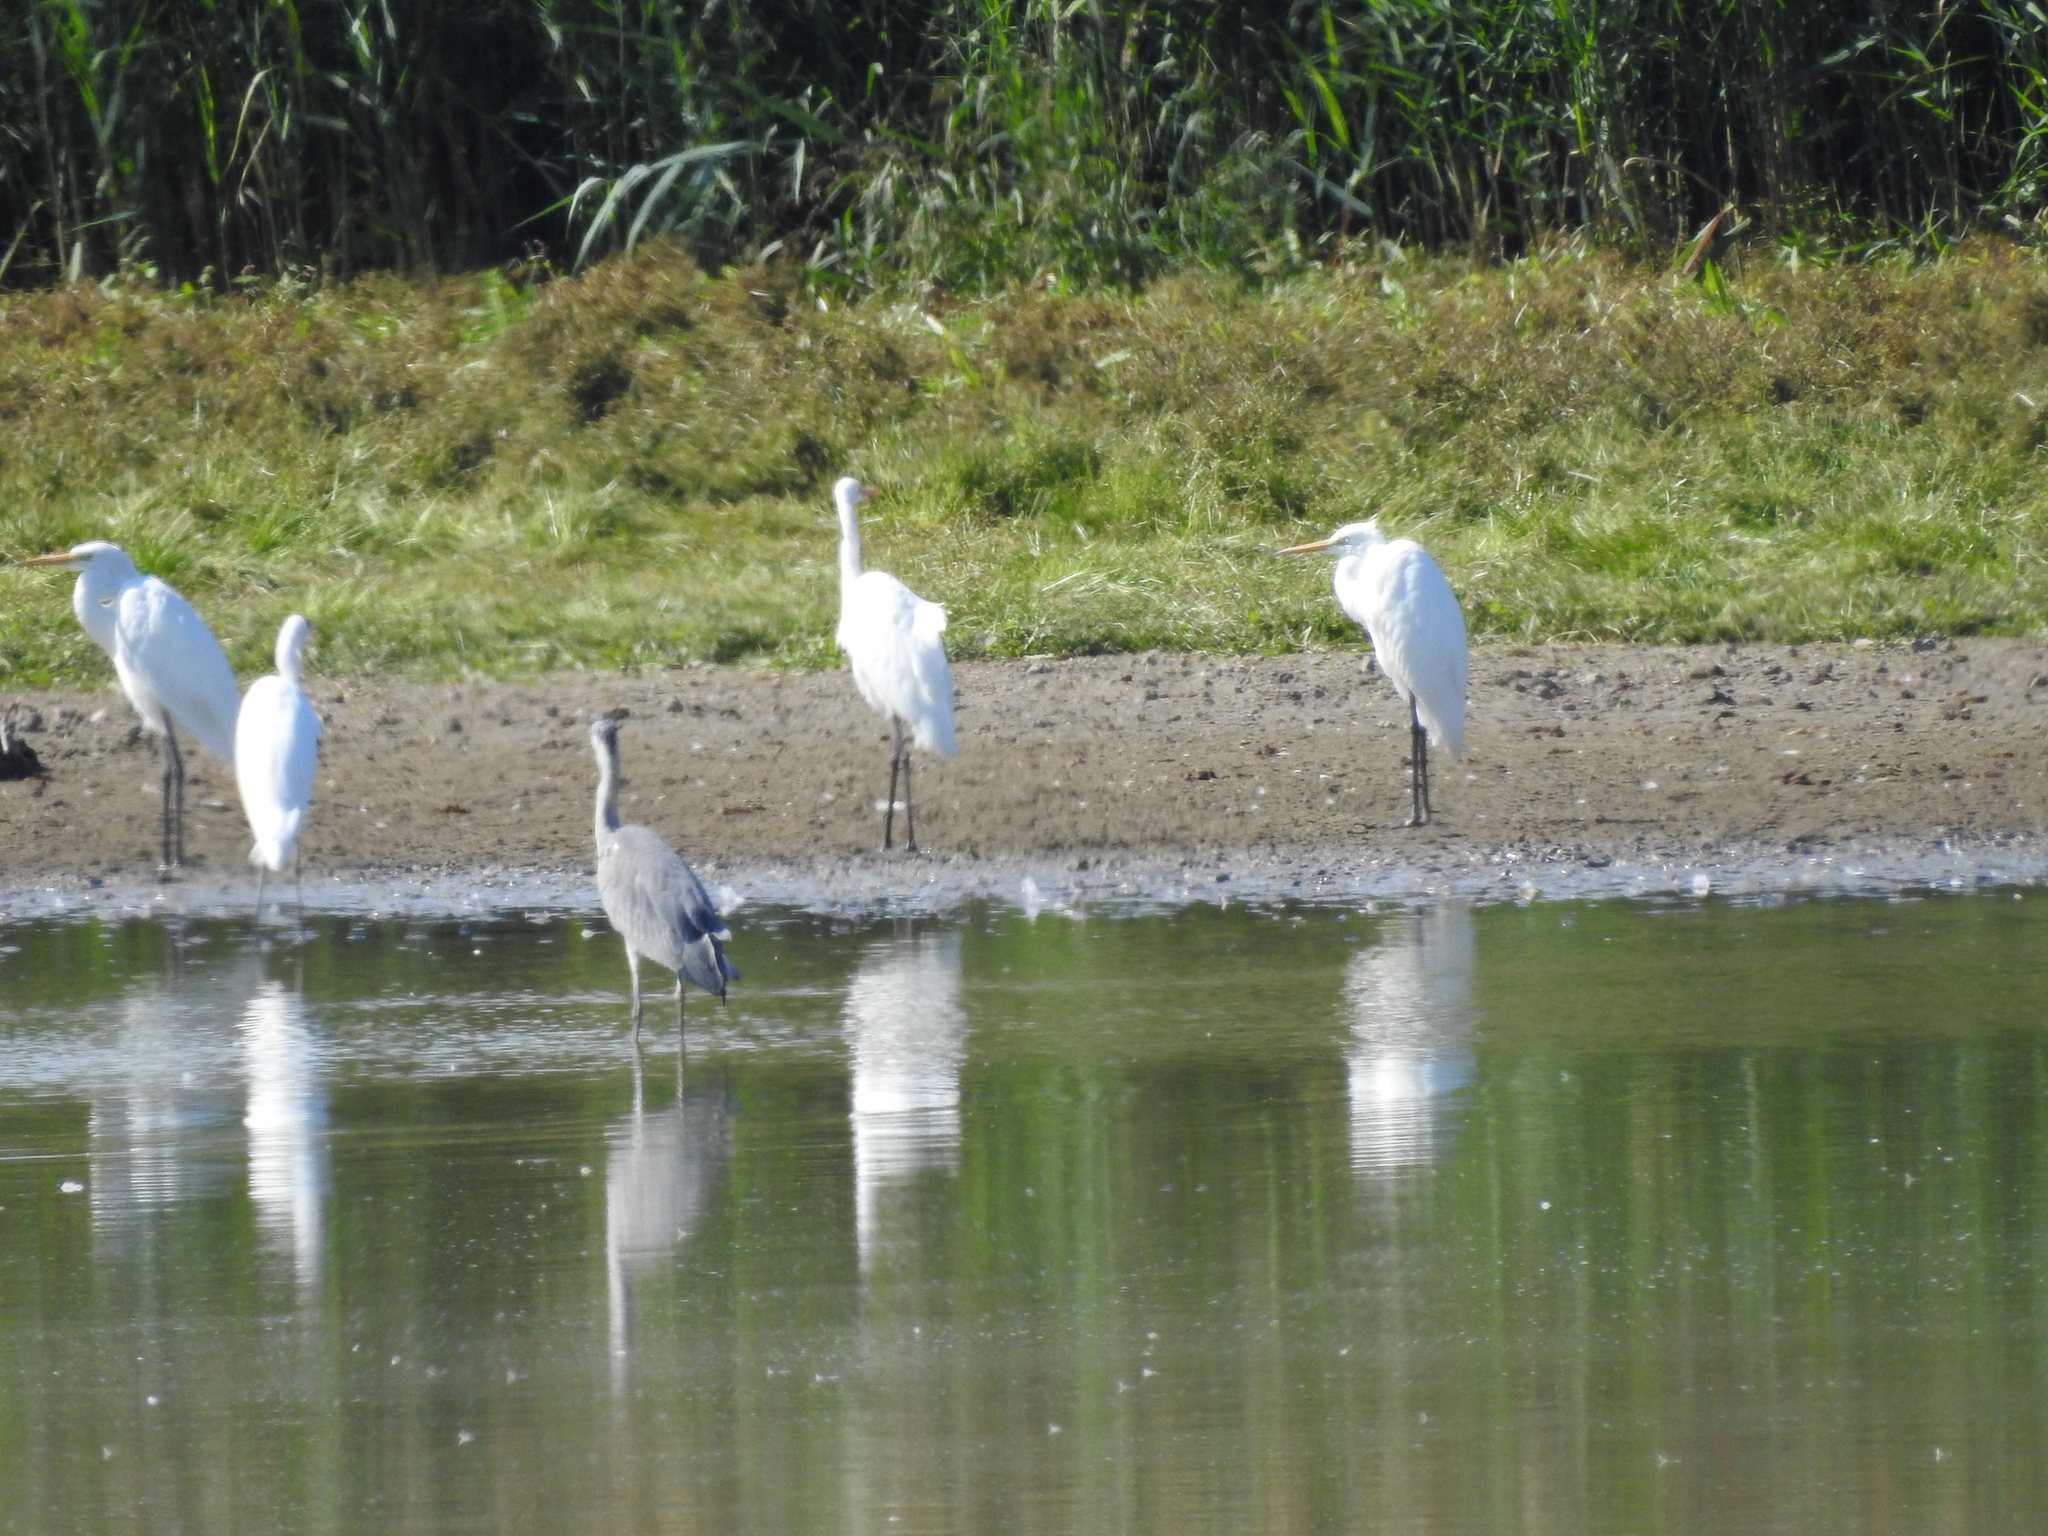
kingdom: Animalia
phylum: Chordata
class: Aves
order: Pelecaniformes
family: Ardeidae
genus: Ardea
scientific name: Ardea alba
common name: Great egret
